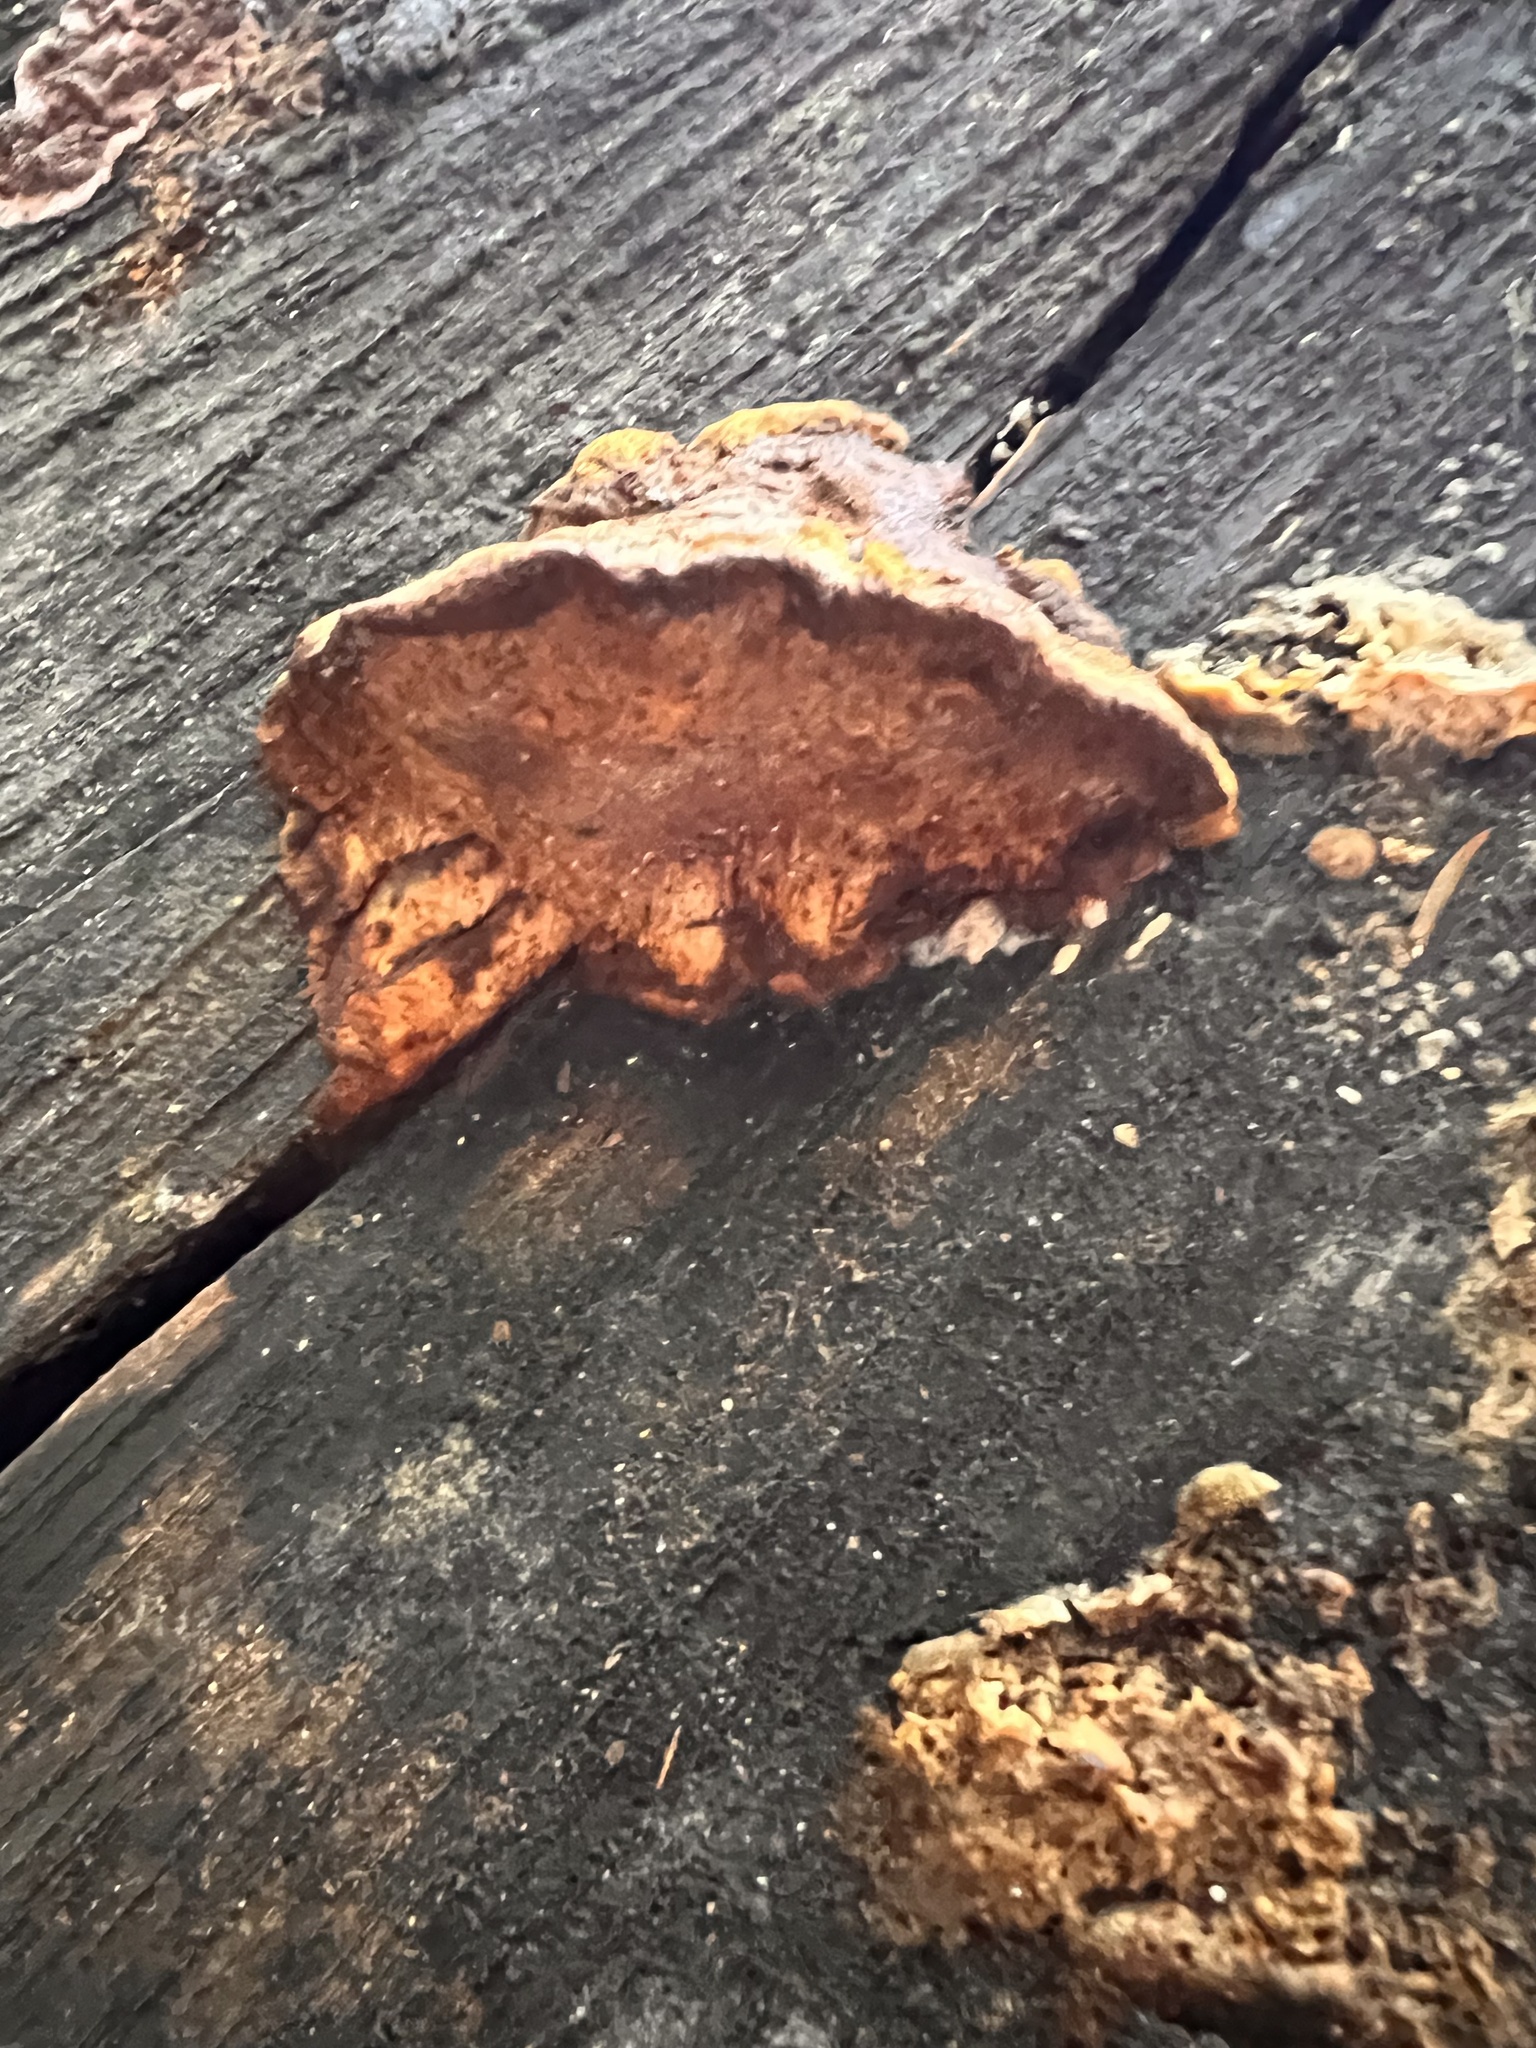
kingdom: Fungi
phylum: Basidiomycota
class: Agaricomycetes
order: Hymenochaetales
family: Hymenochaetaceae
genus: Phellinus
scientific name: Phellinus gilvus
